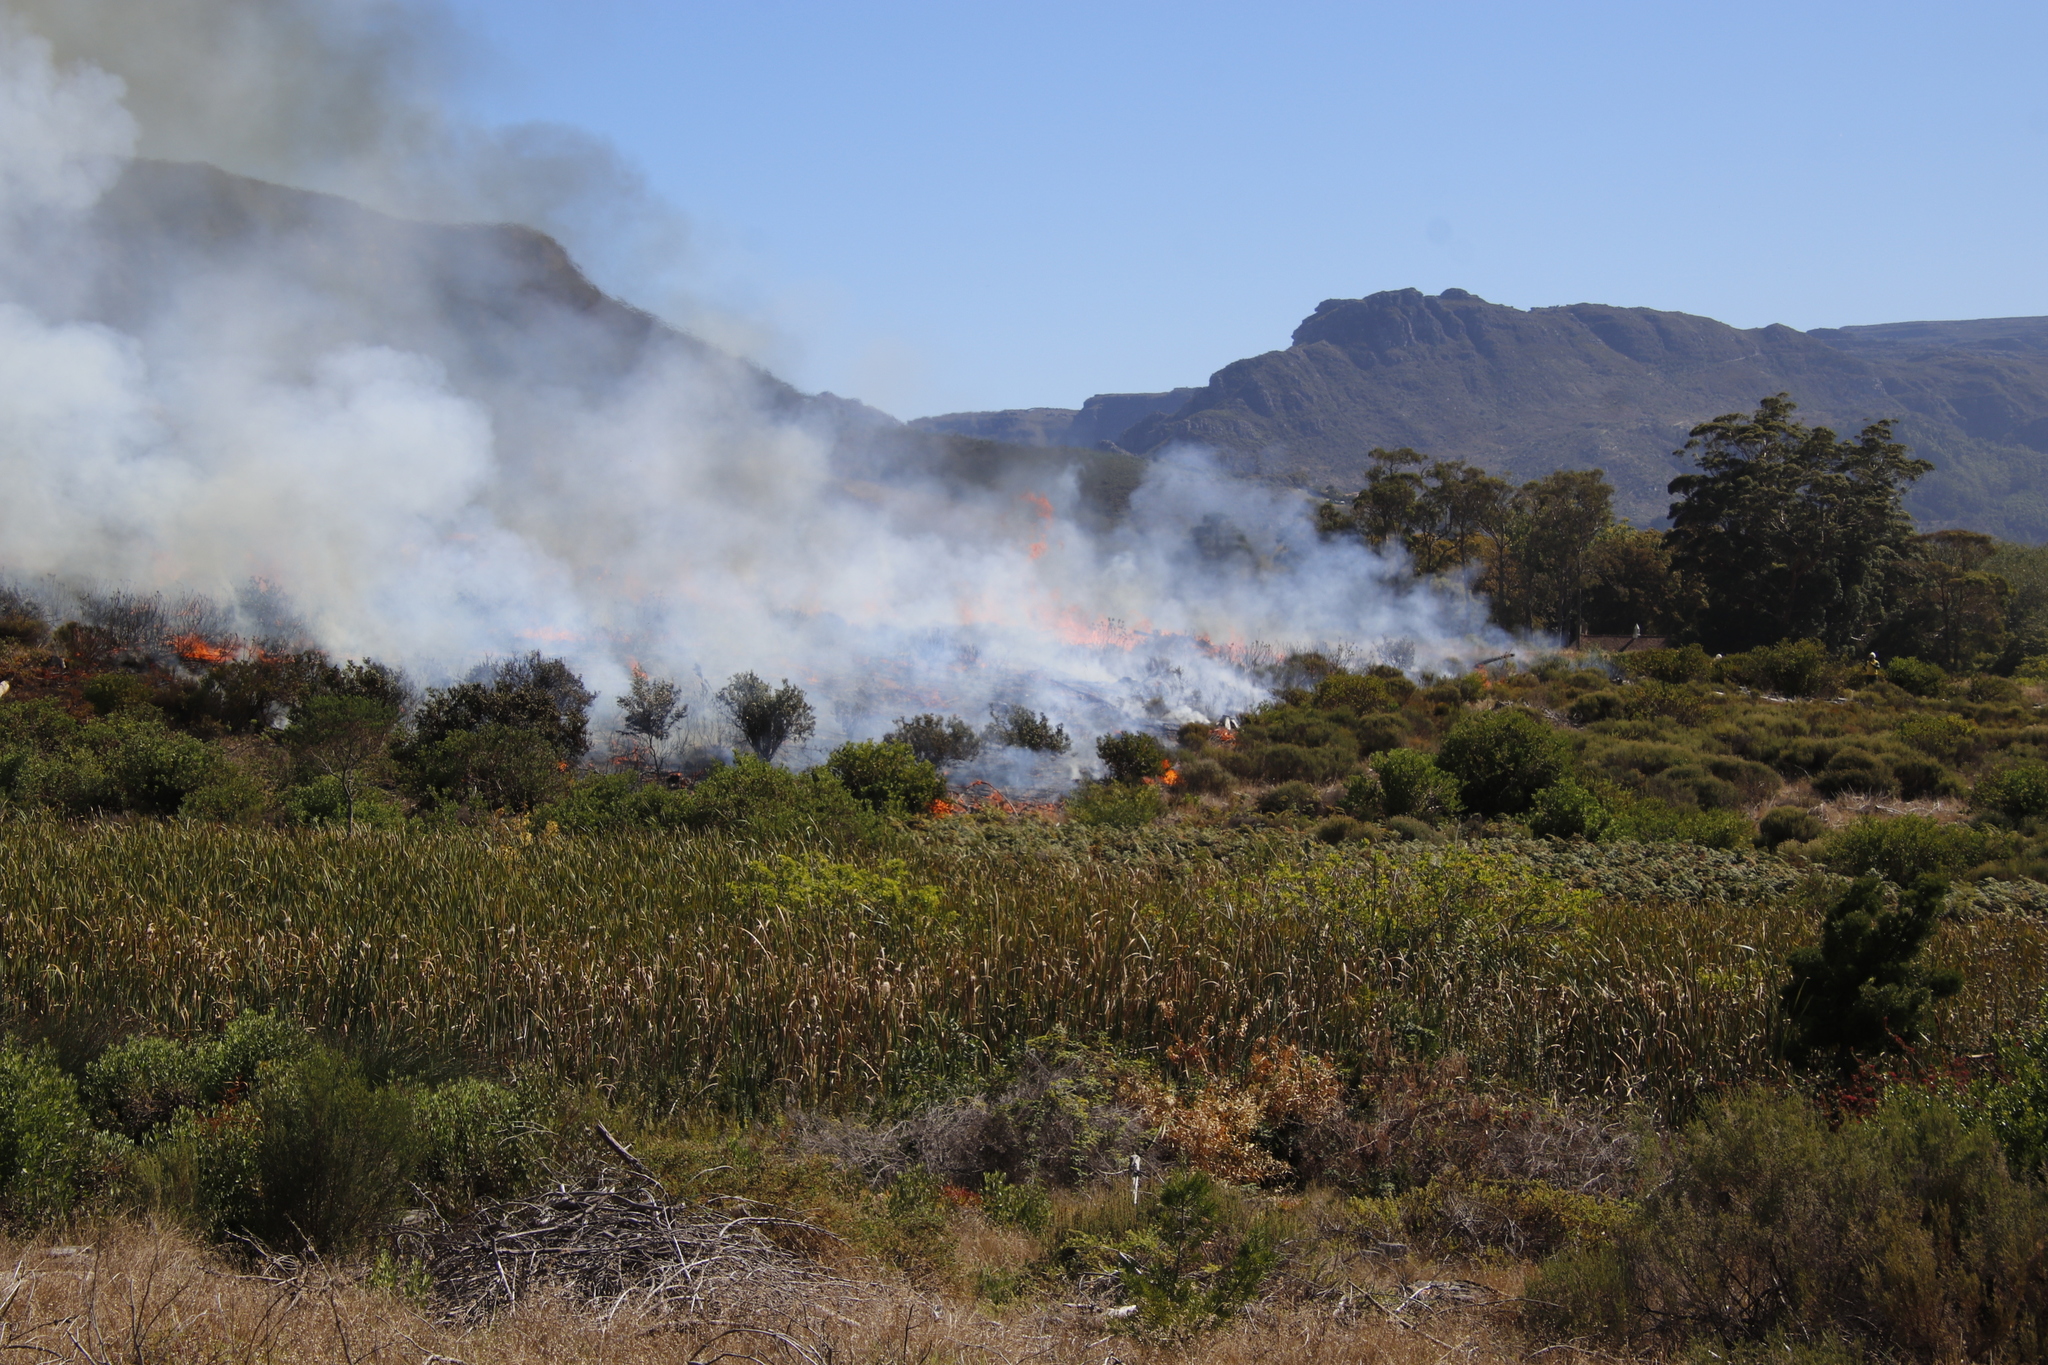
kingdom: Plantae
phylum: Tracheophyta
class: Liliopsida
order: Poales
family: Typhaceae
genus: Typha
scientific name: Typha capensis
